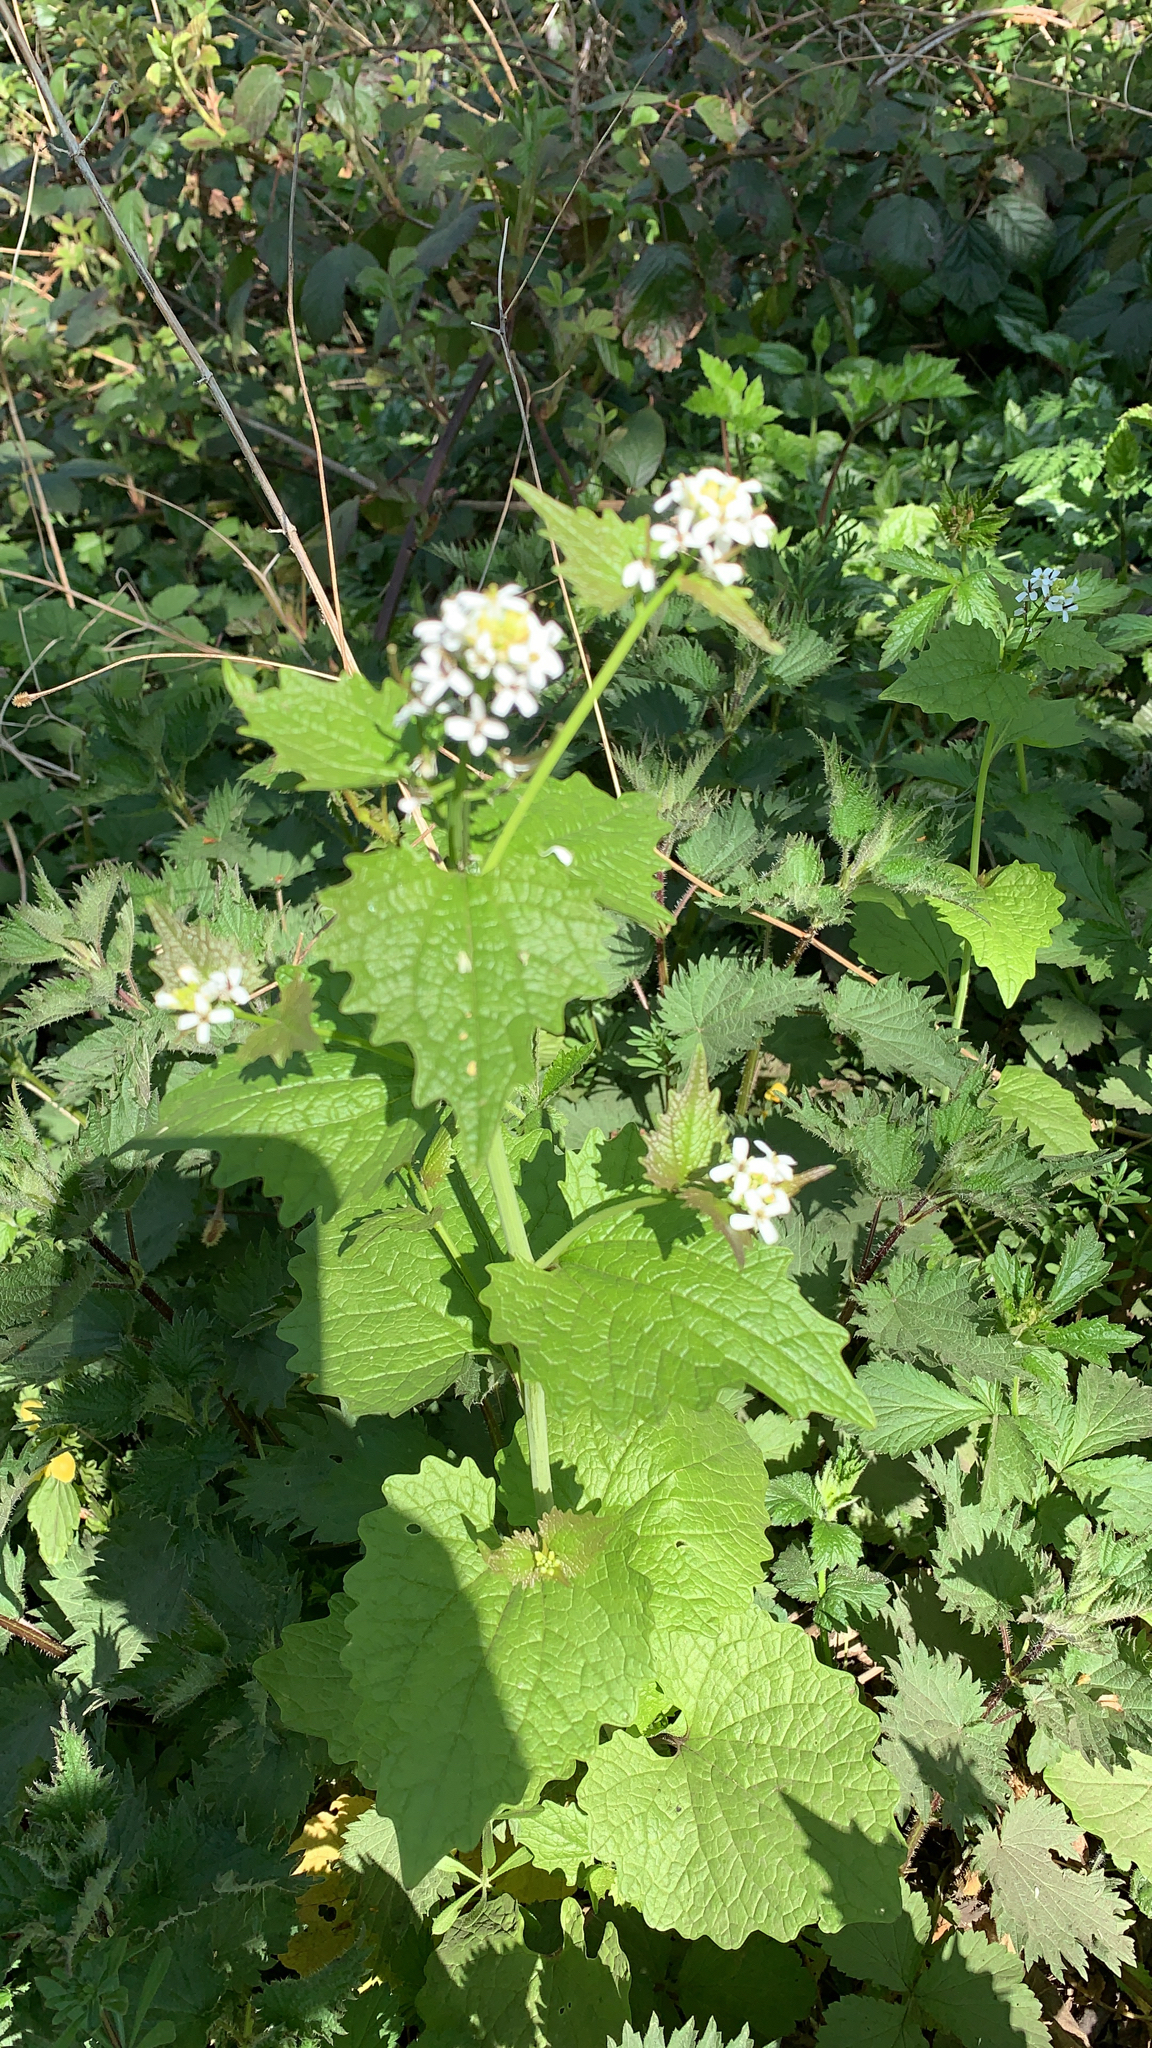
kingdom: Plantae
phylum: Tracheophyta
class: Magnoliopsida
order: Brassicales
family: Brassicaceae
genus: Alliaria
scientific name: Alliaria petiolata
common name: Garlic mustard
